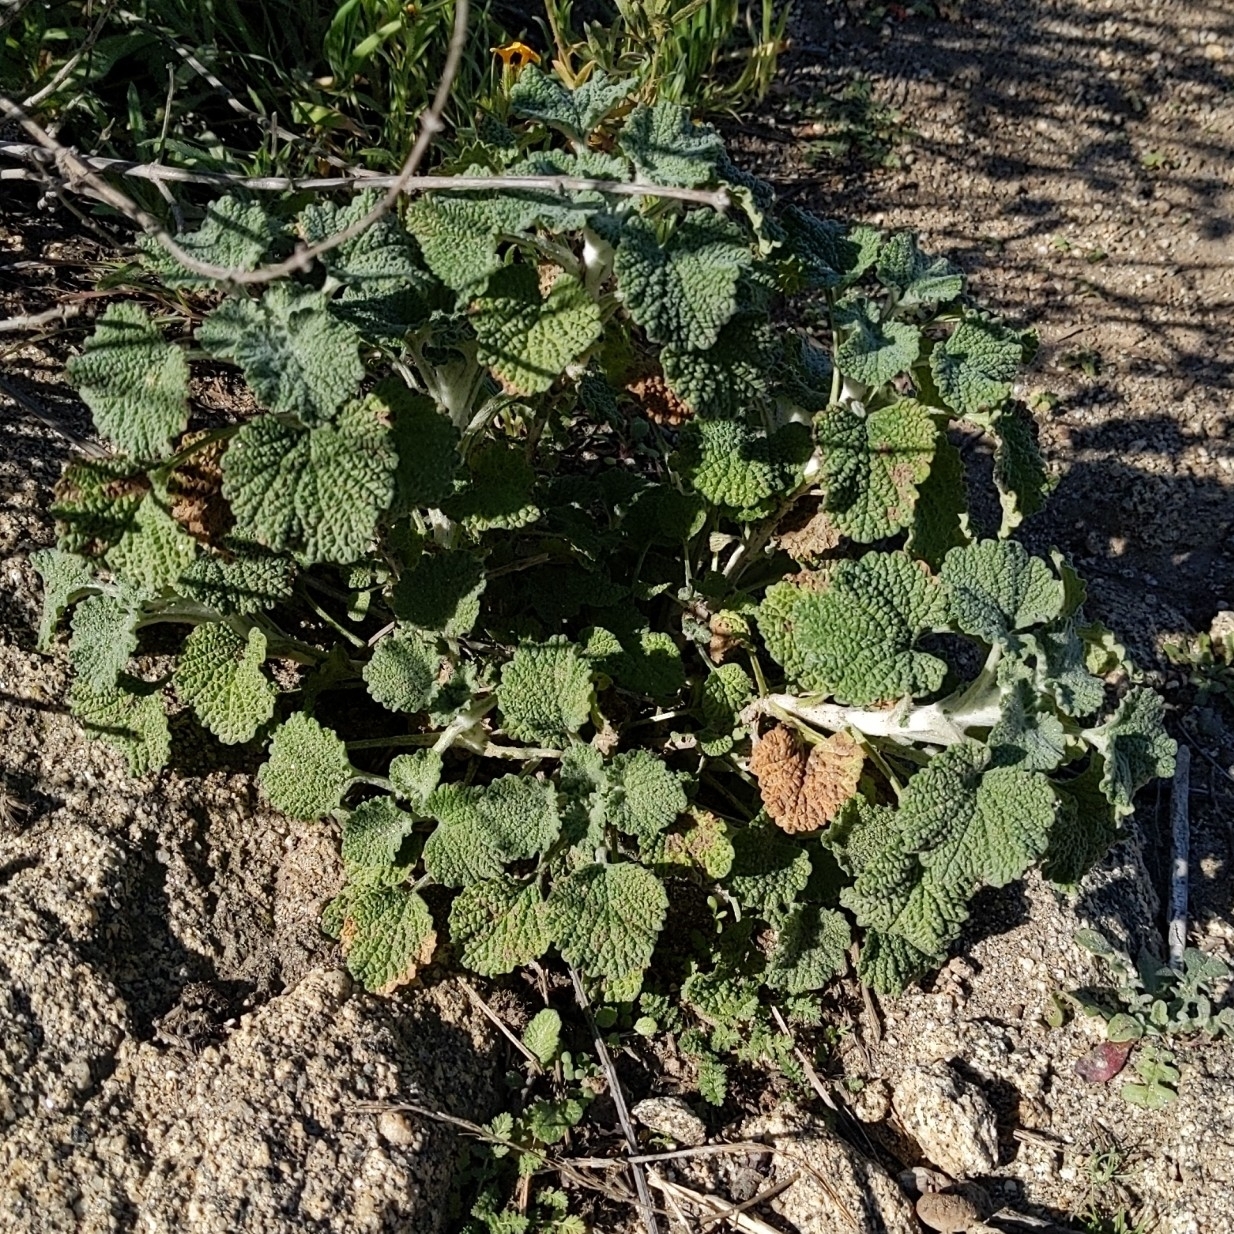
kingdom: Plantae
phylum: Tracheophyta
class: Magnoliopsida
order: Lamiales
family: Lamiaceae
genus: Marrubium
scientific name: Marrubium vulgare
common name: Horehound
